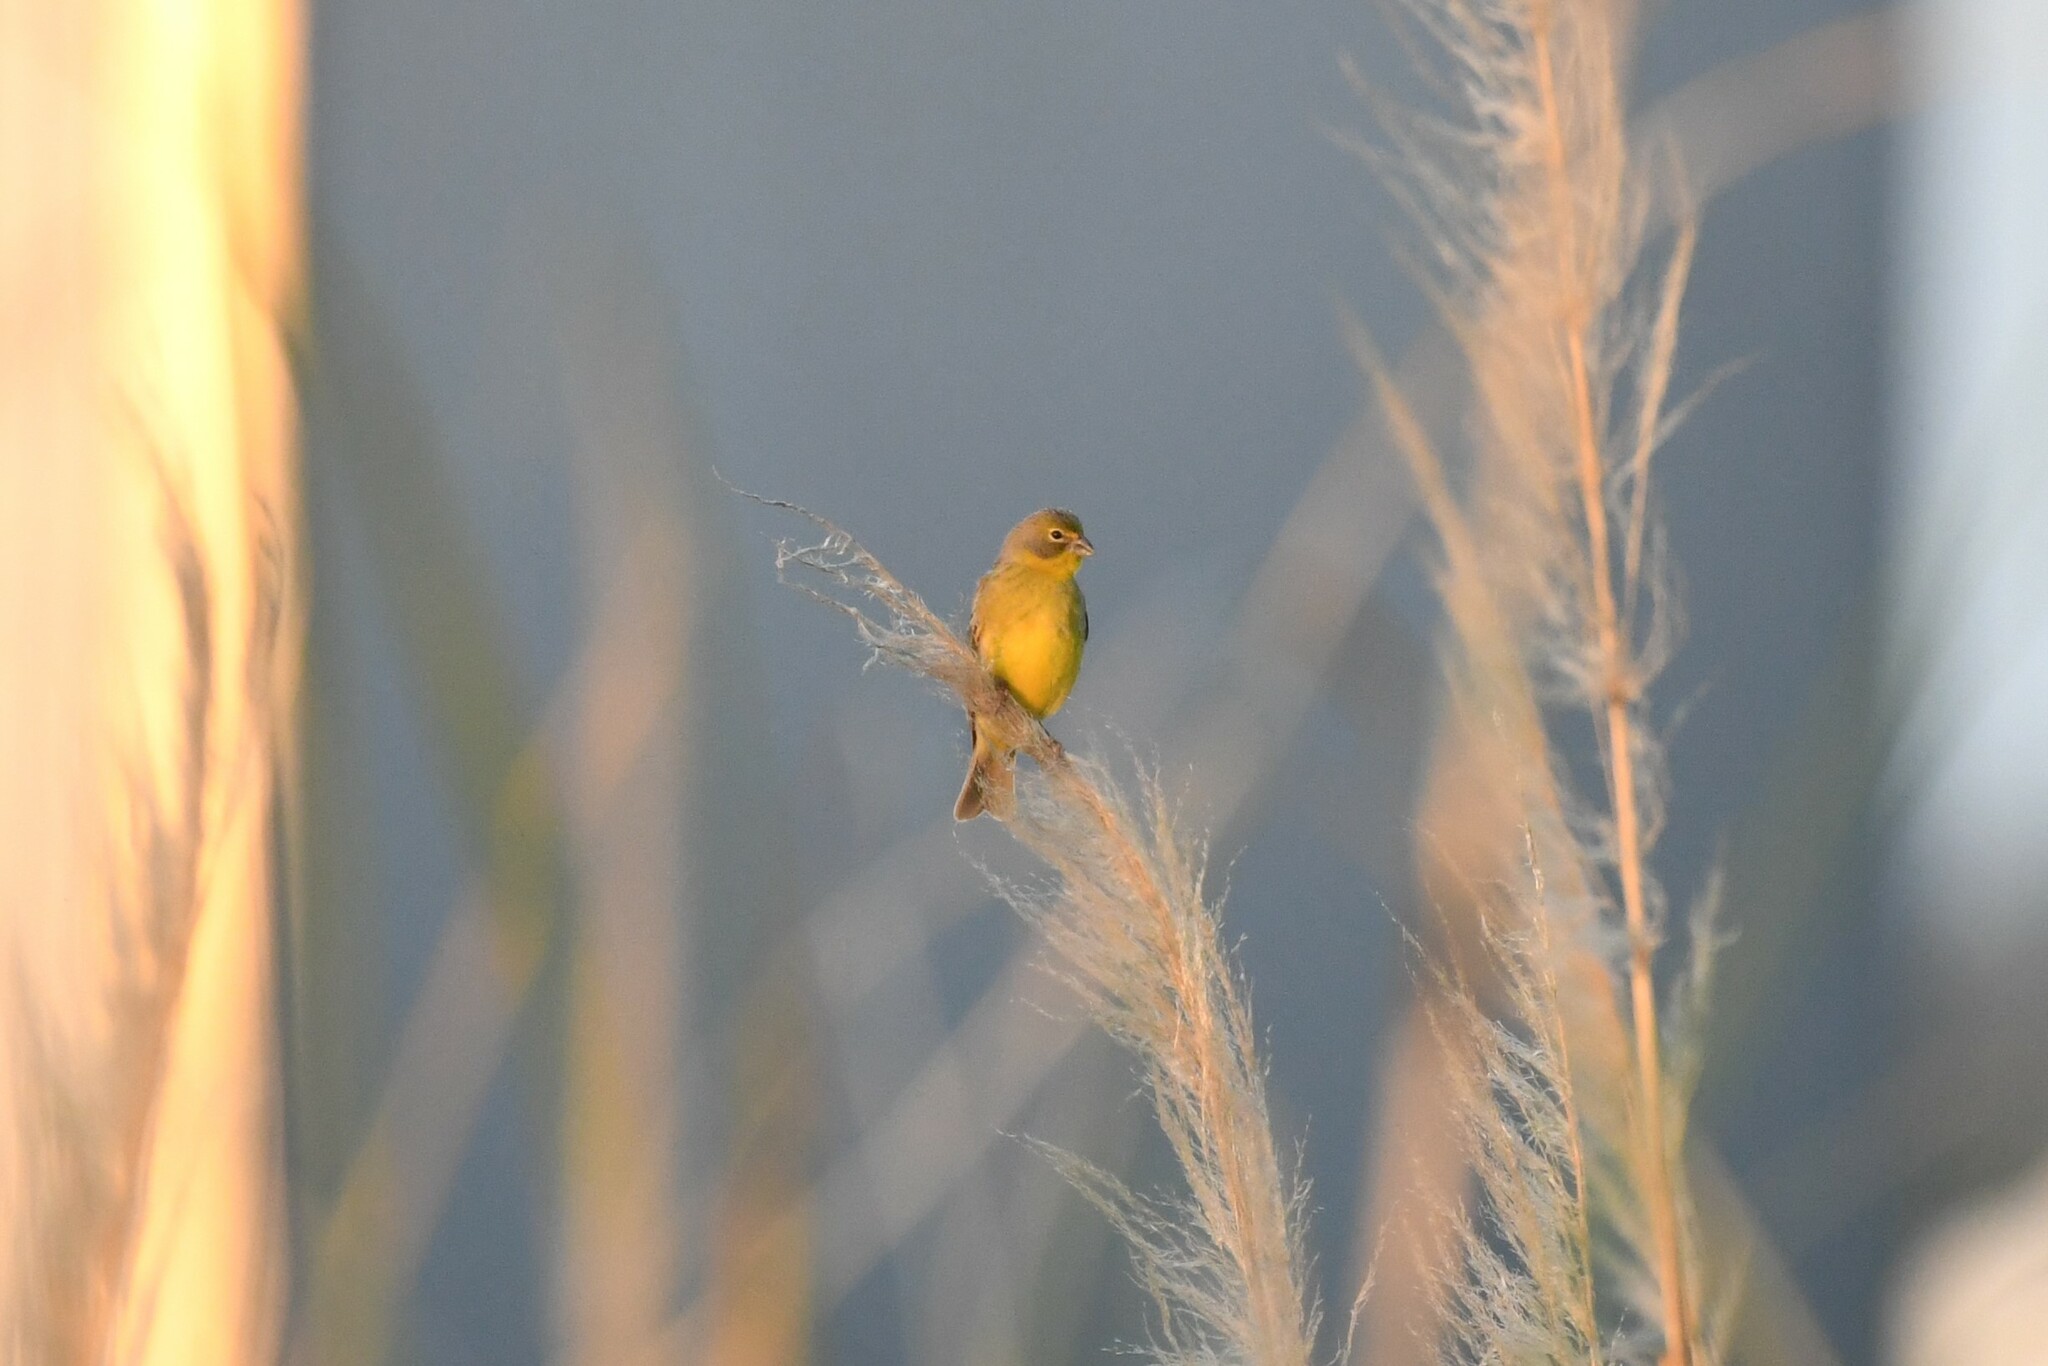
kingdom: Animalia
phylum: Chordata
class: Aves
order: Passeriformes
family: Thraupidae
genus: Sicalis
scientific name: Sicalis luteola
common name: Grassland yellow-finch
